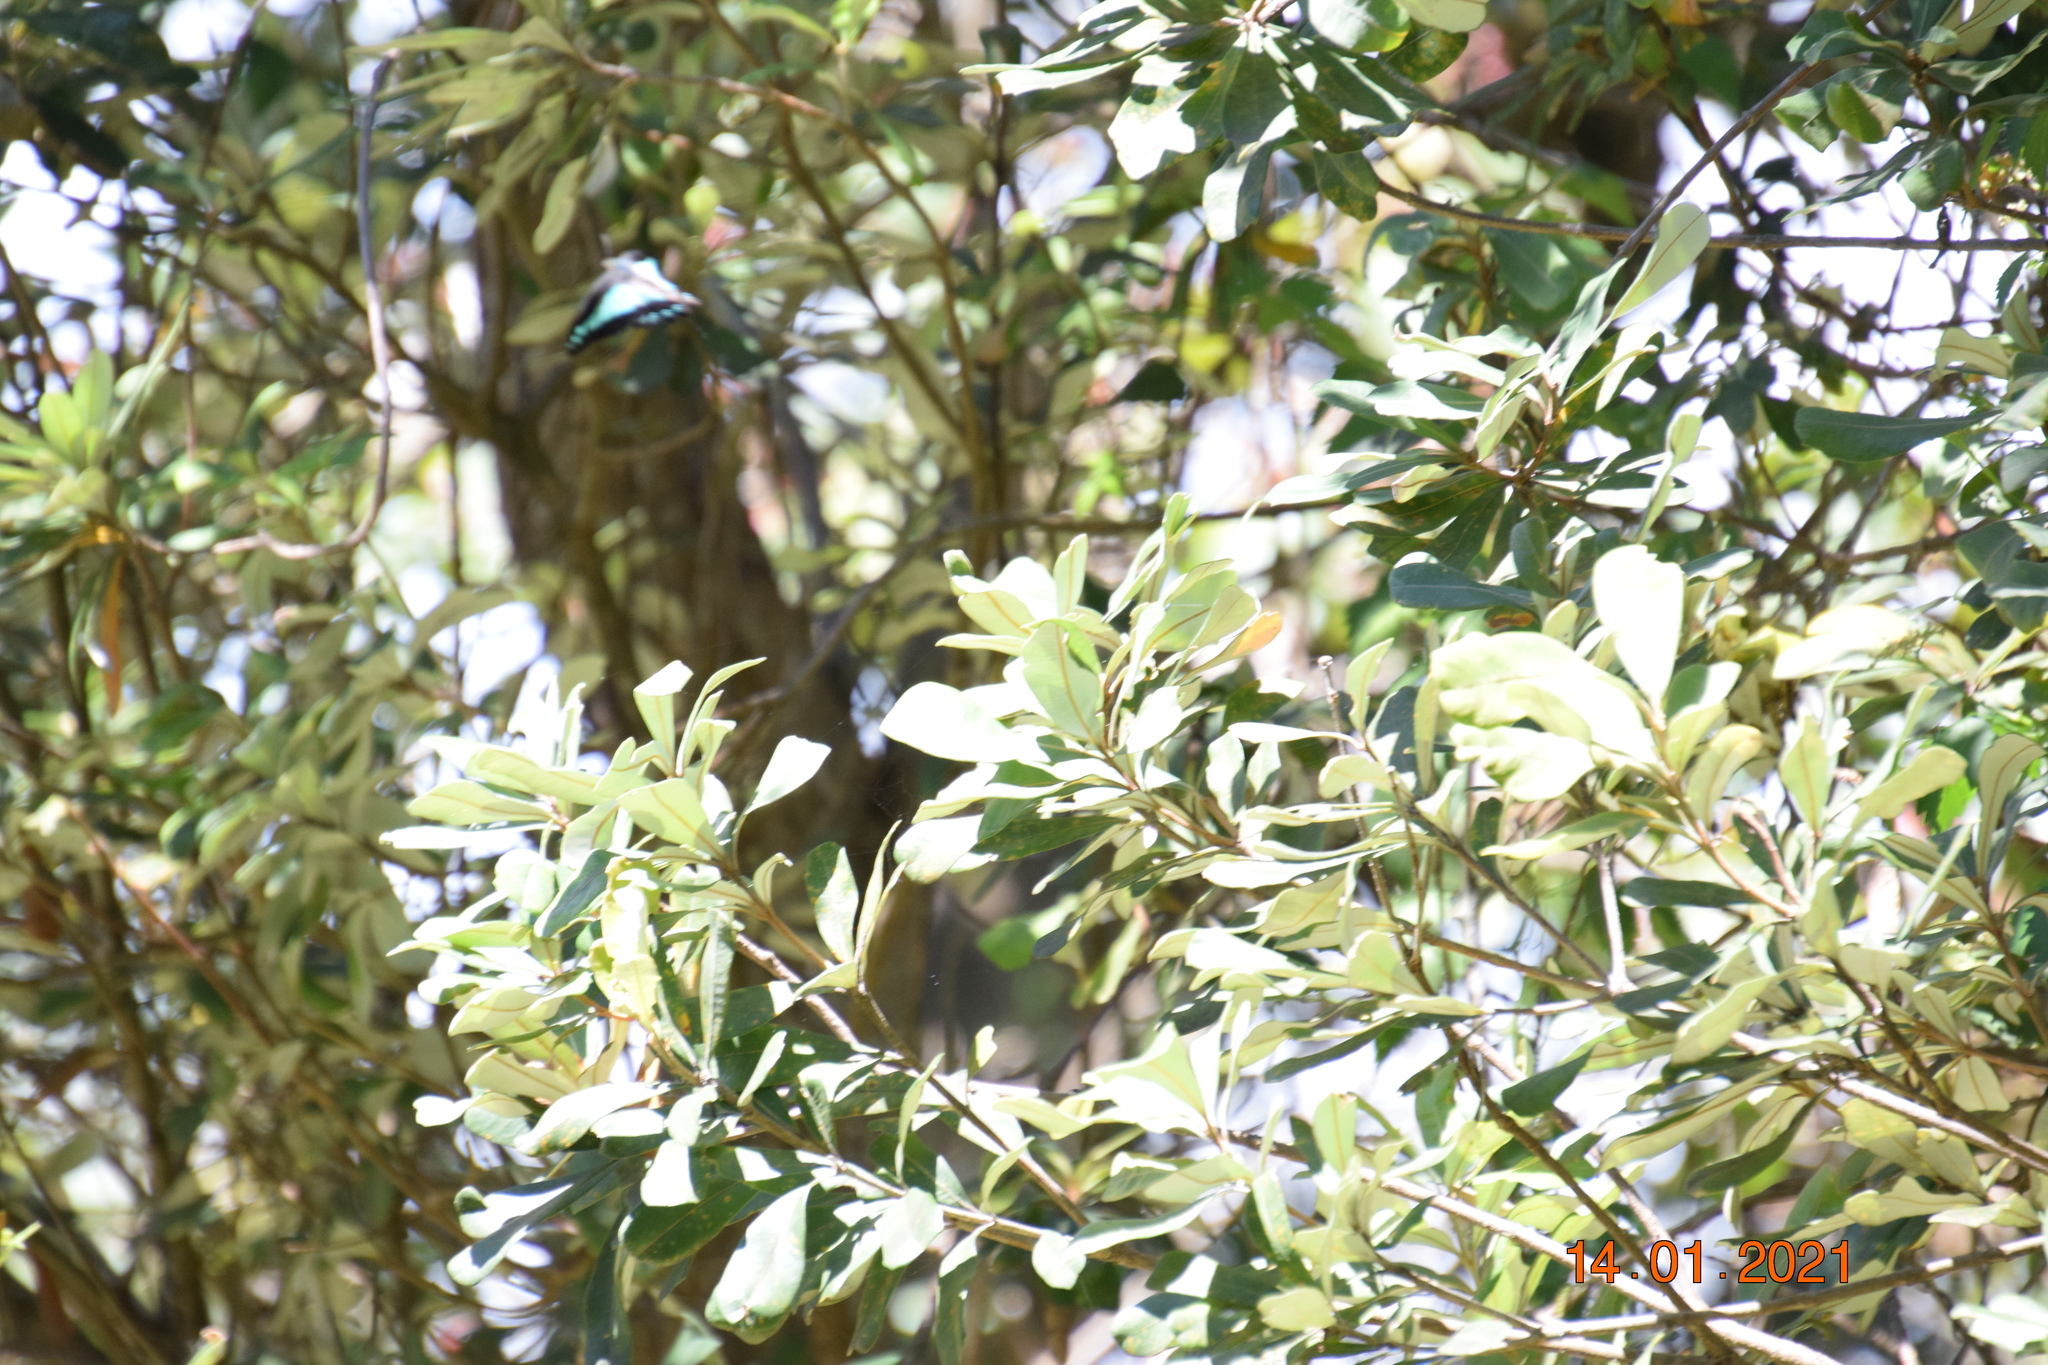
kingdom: Animalia
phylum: Arthropoda
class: Insecta
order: Lepidoptera
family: Papilionidae
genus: Graphium
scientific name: Graphium
